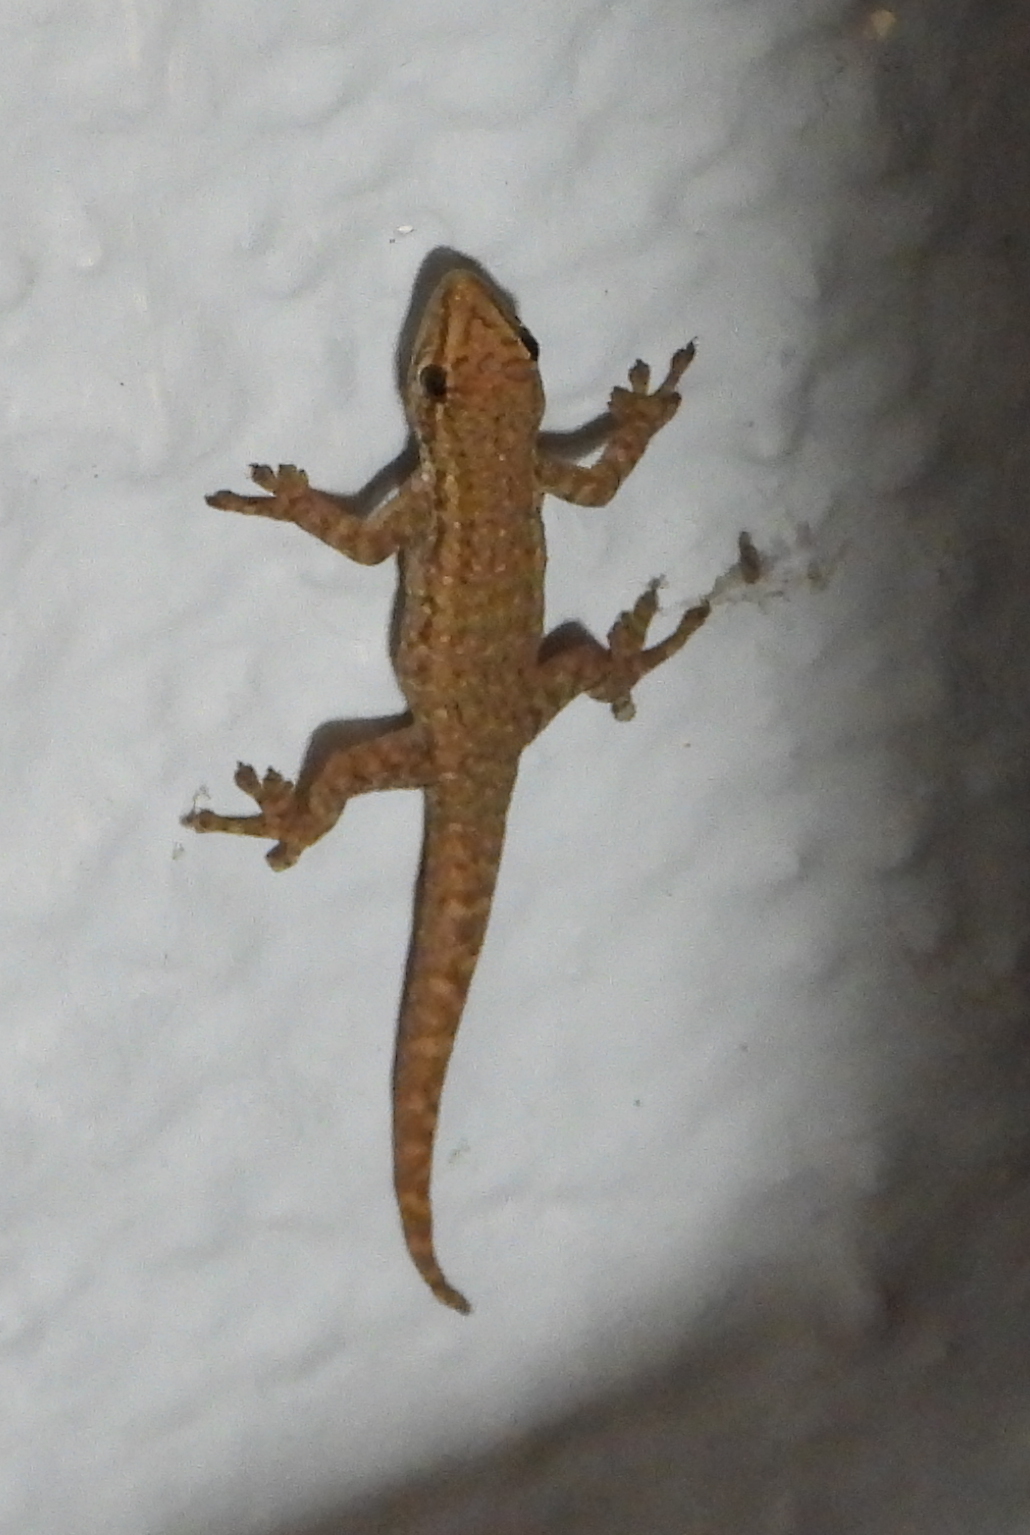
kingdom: Animalia
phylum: Chordata
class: Squamata
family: Gekkonidae
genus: Lygodactylus
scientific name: Lygodactylus capensis
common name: Cape dwarf gecko
